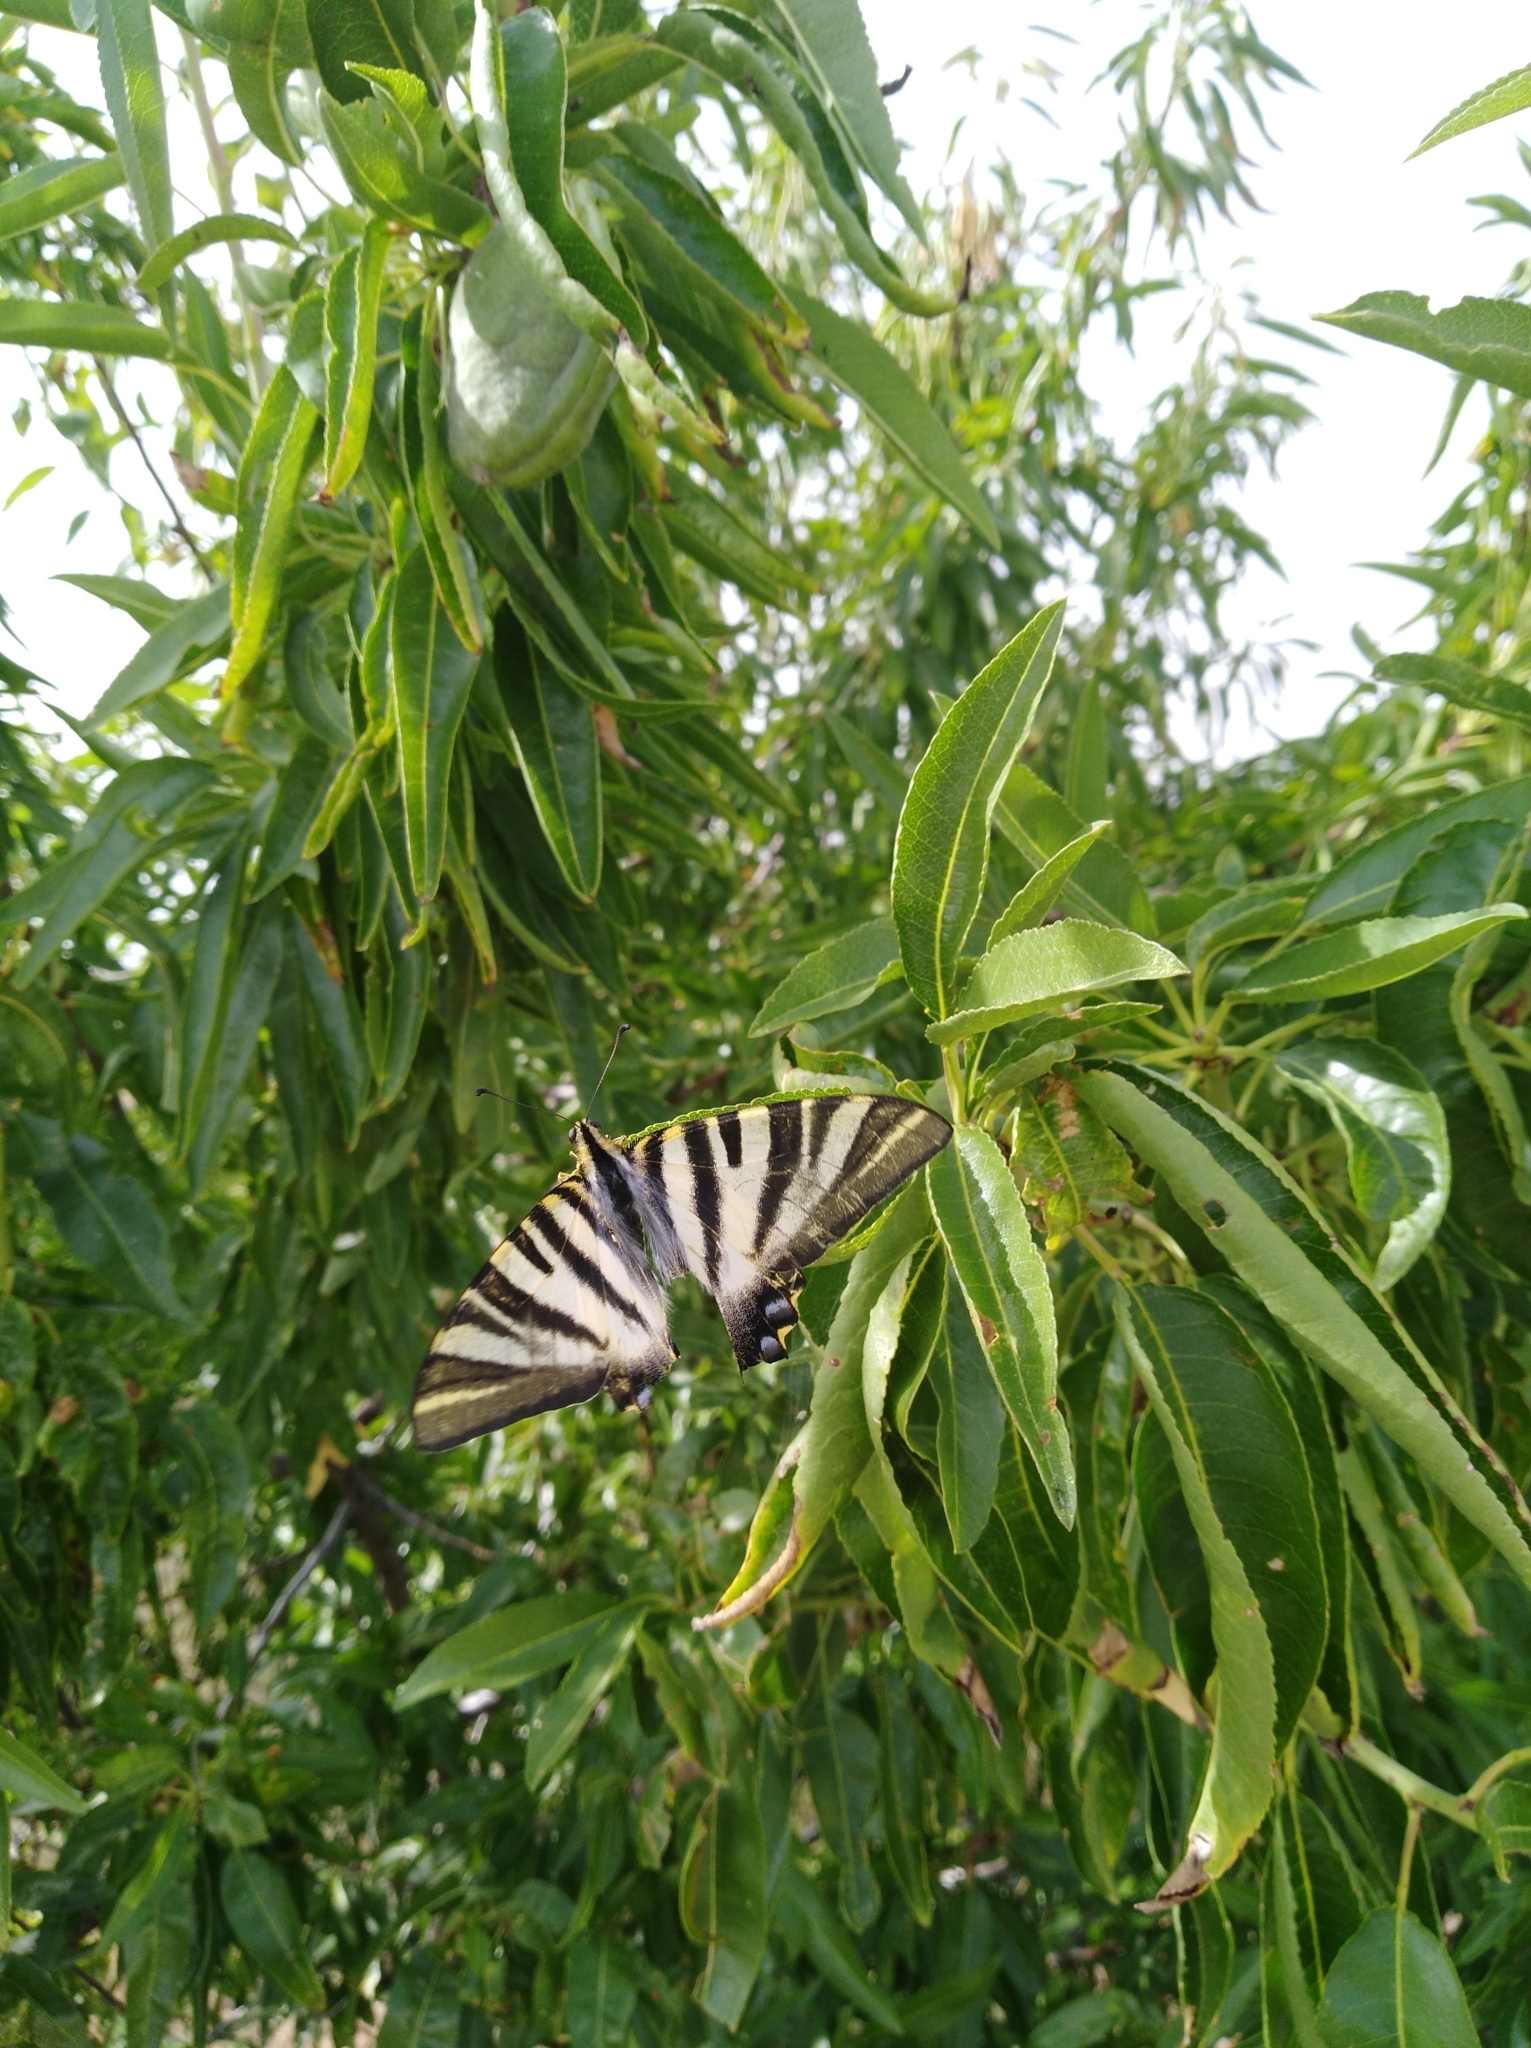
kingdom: Animalia
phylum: Arthropoda
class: Insecta
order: Lepidoptera
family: Papilionidae
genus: Iphiclides
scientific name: Iphiclides feisthamelii
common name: Iberian scarce swallowtail
